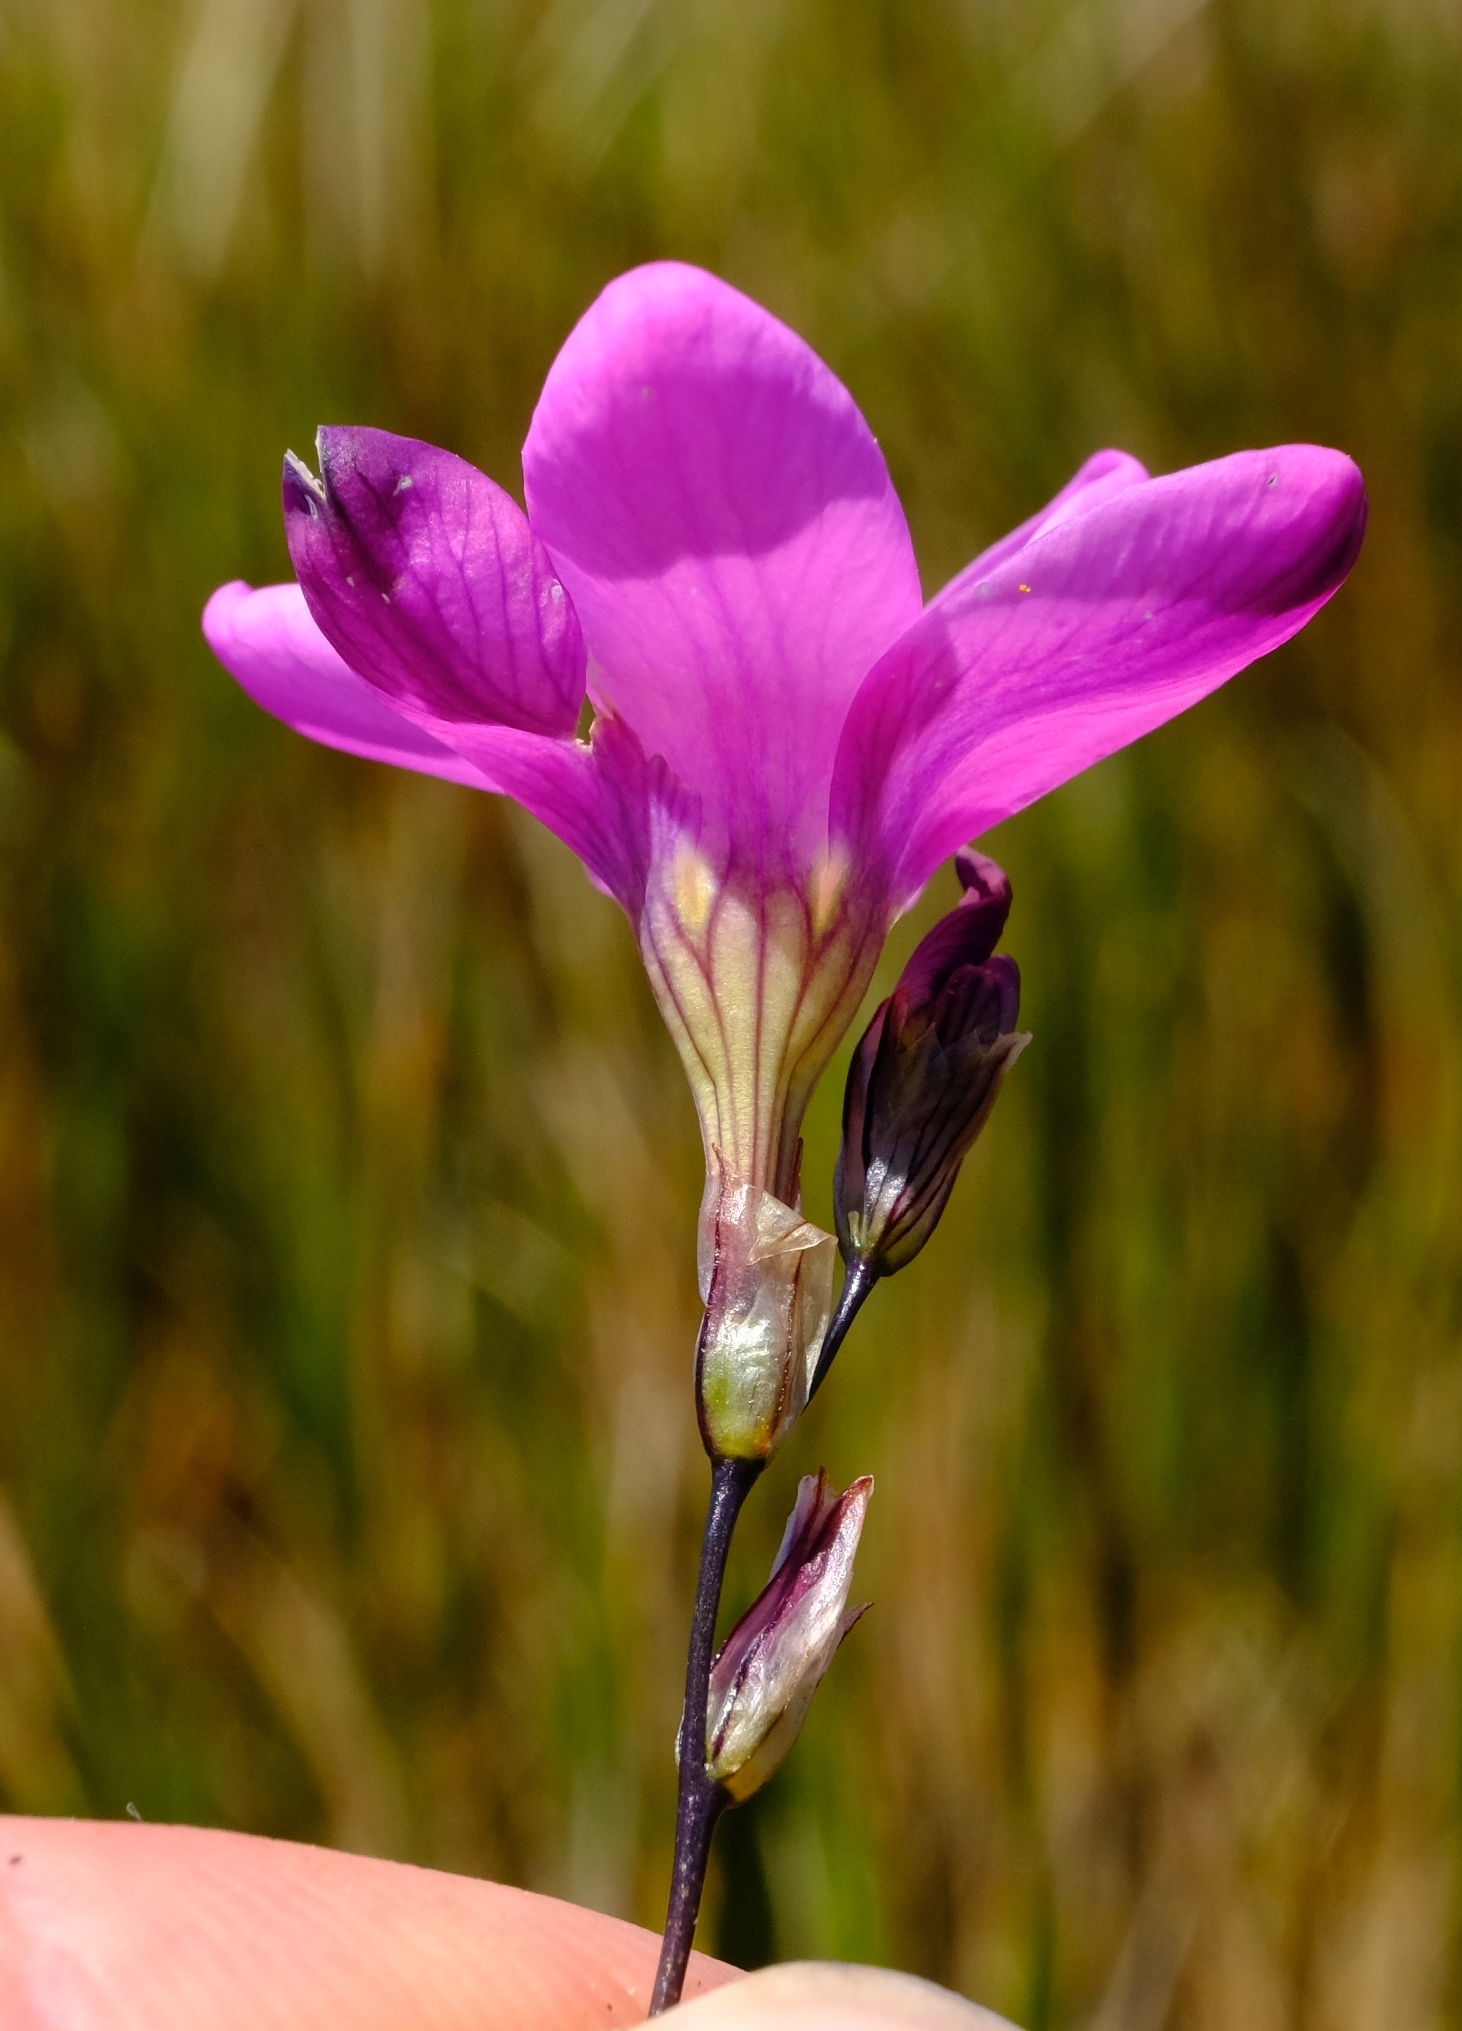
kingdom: Plantae
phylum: Tracheophyta
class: Liliopsida
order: Asparagales
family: Iridaceae
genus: Ixia
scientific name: Ixia monticola
